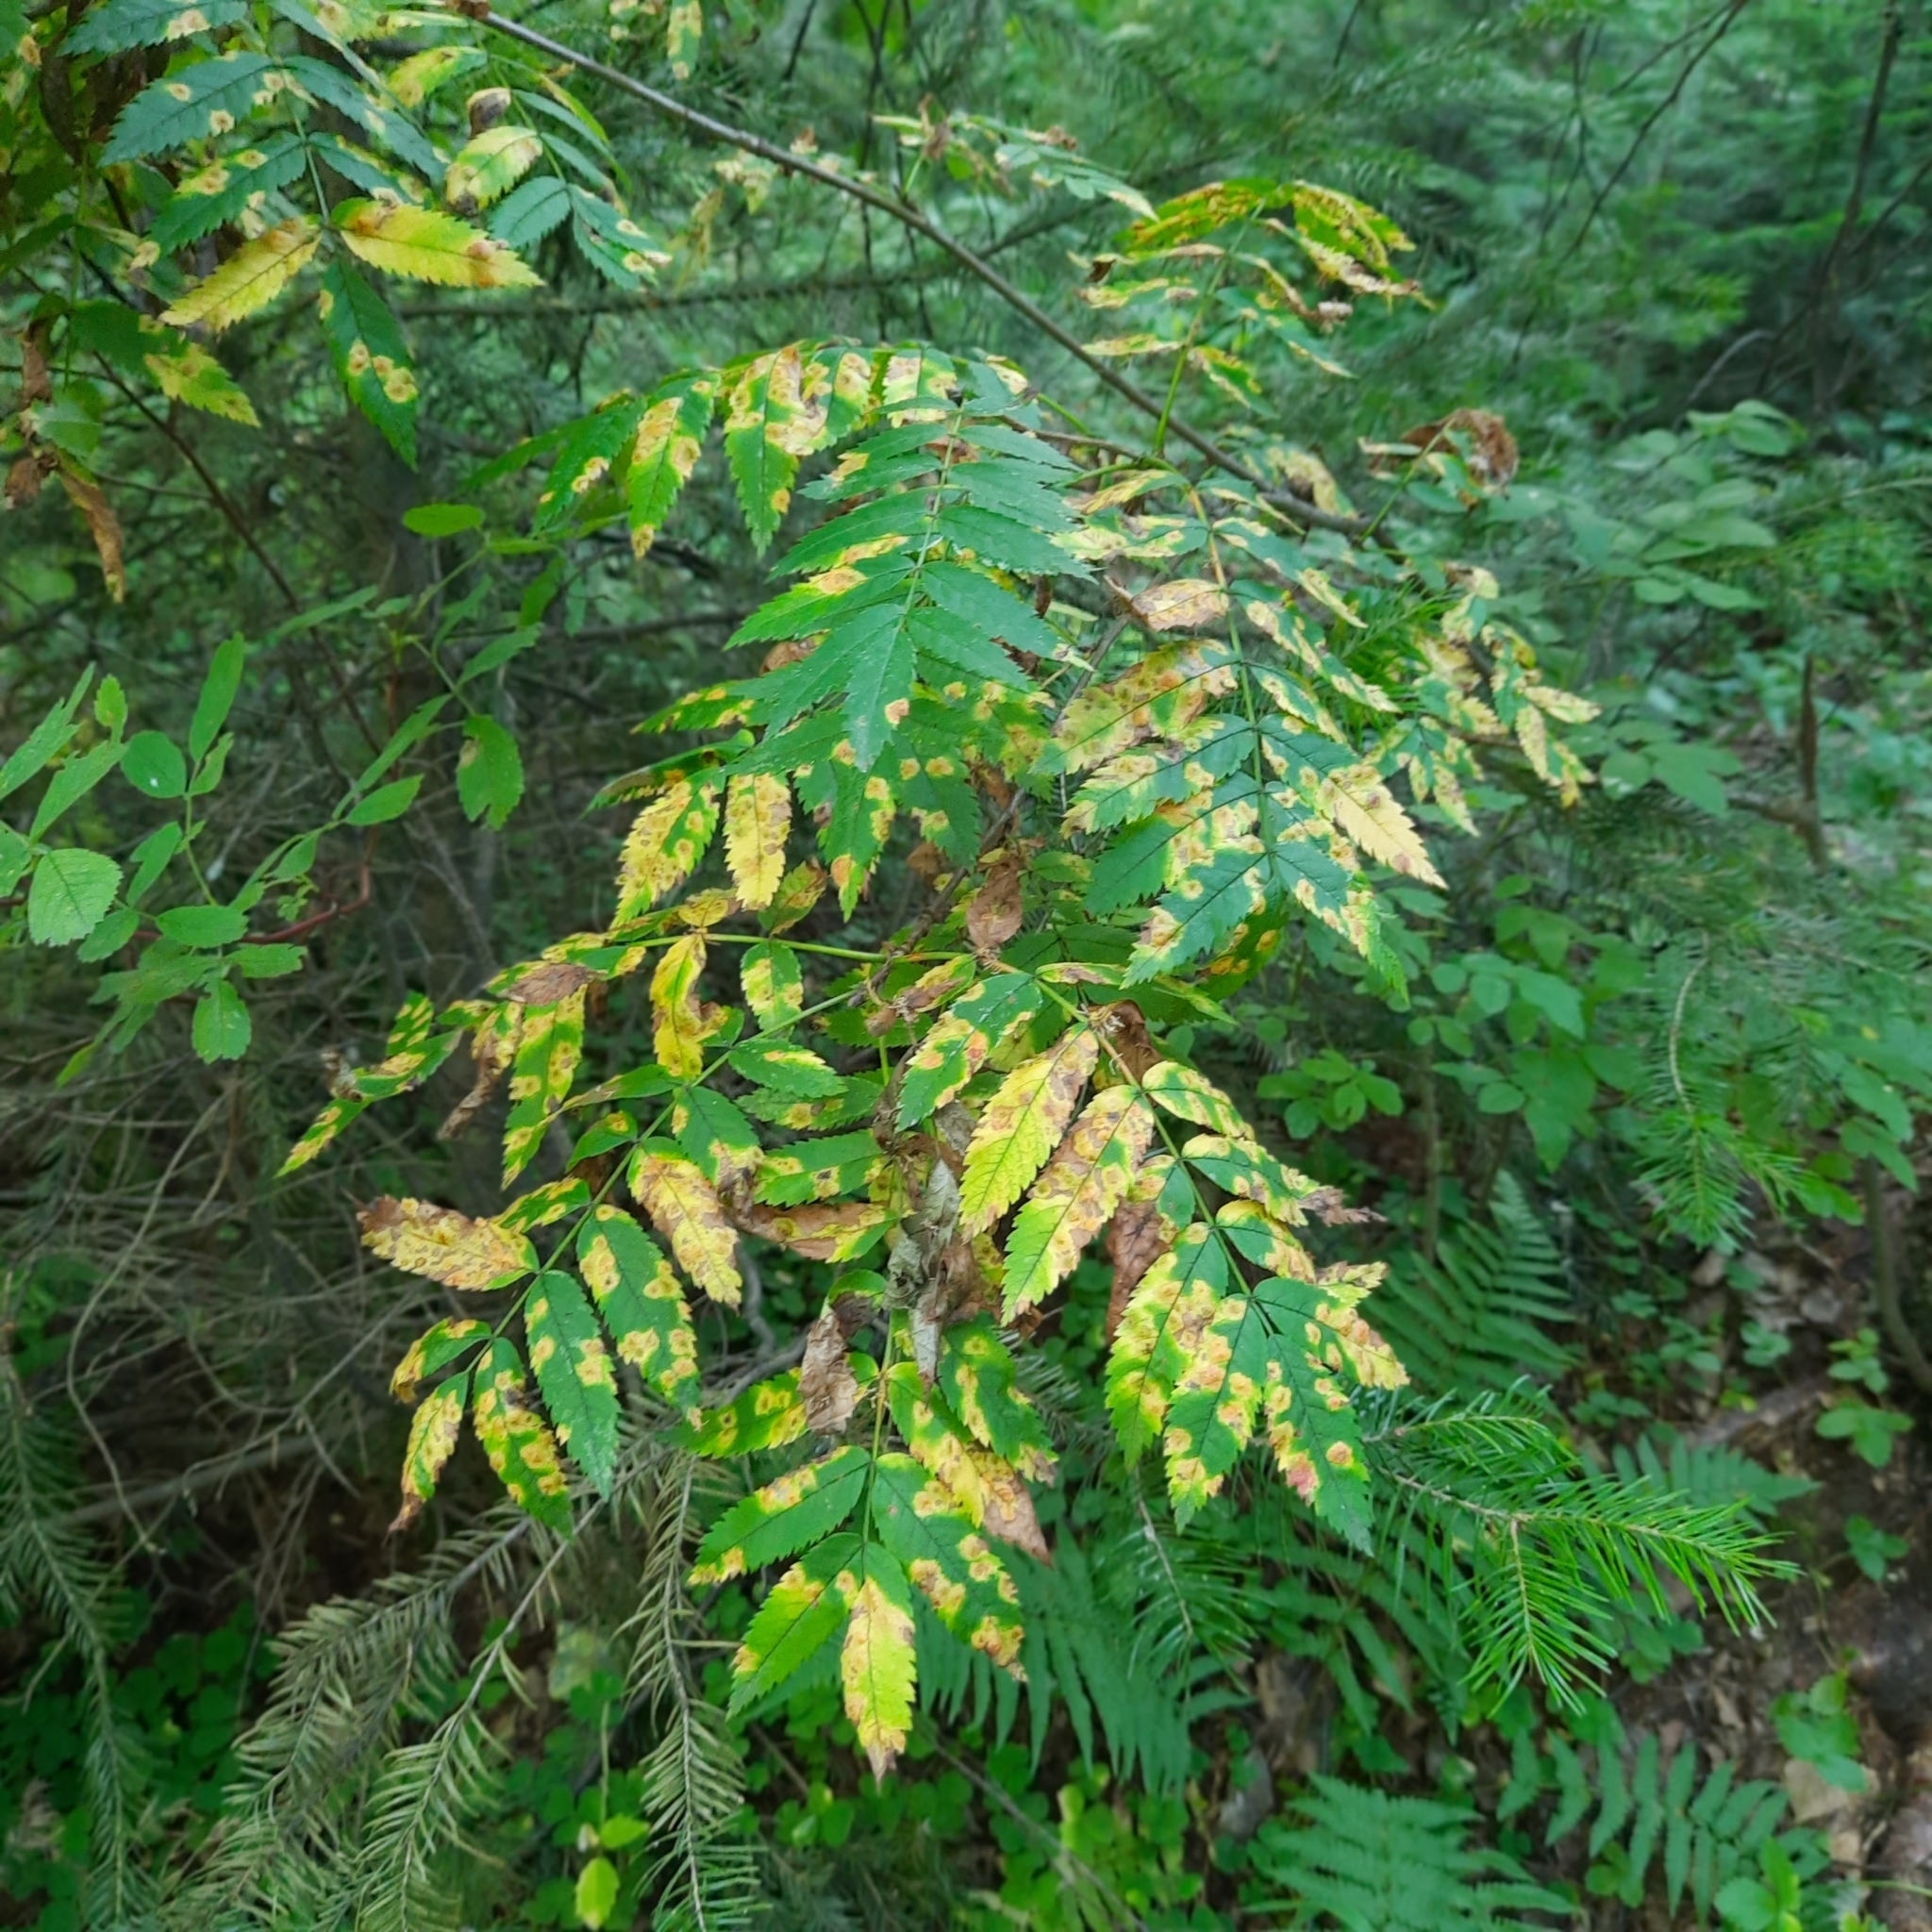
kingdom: Plantae
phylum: Tracheophyta
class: Magnoliopsida
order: Rosales
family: Rosaceae
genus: Sorbus
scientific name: Sorbus aucuparia
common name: Rowan
